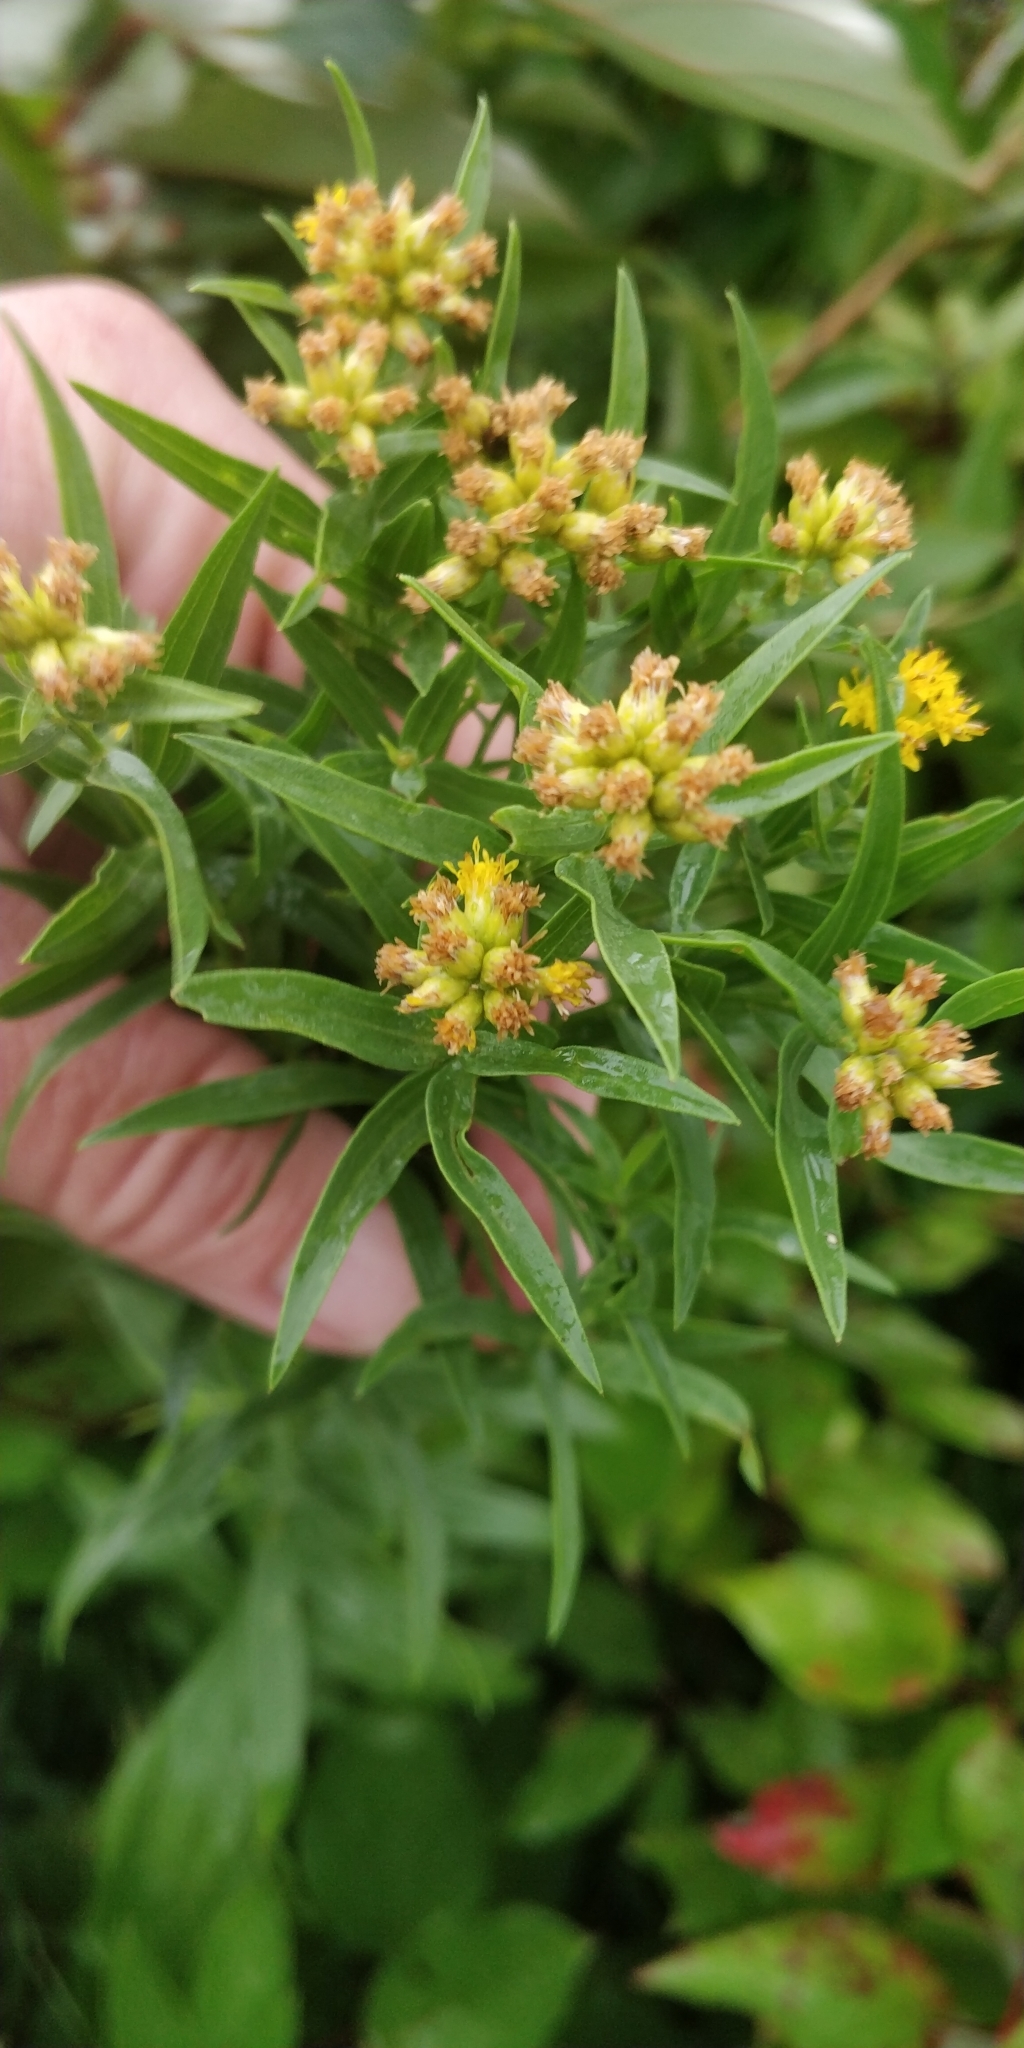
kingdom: Plantae
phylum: Tracheophyta
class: Magnoliopsida
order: Asterales
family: Asteraceae
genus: Euthamia
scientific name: Euthamia graminifolia
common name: Common goldentop
